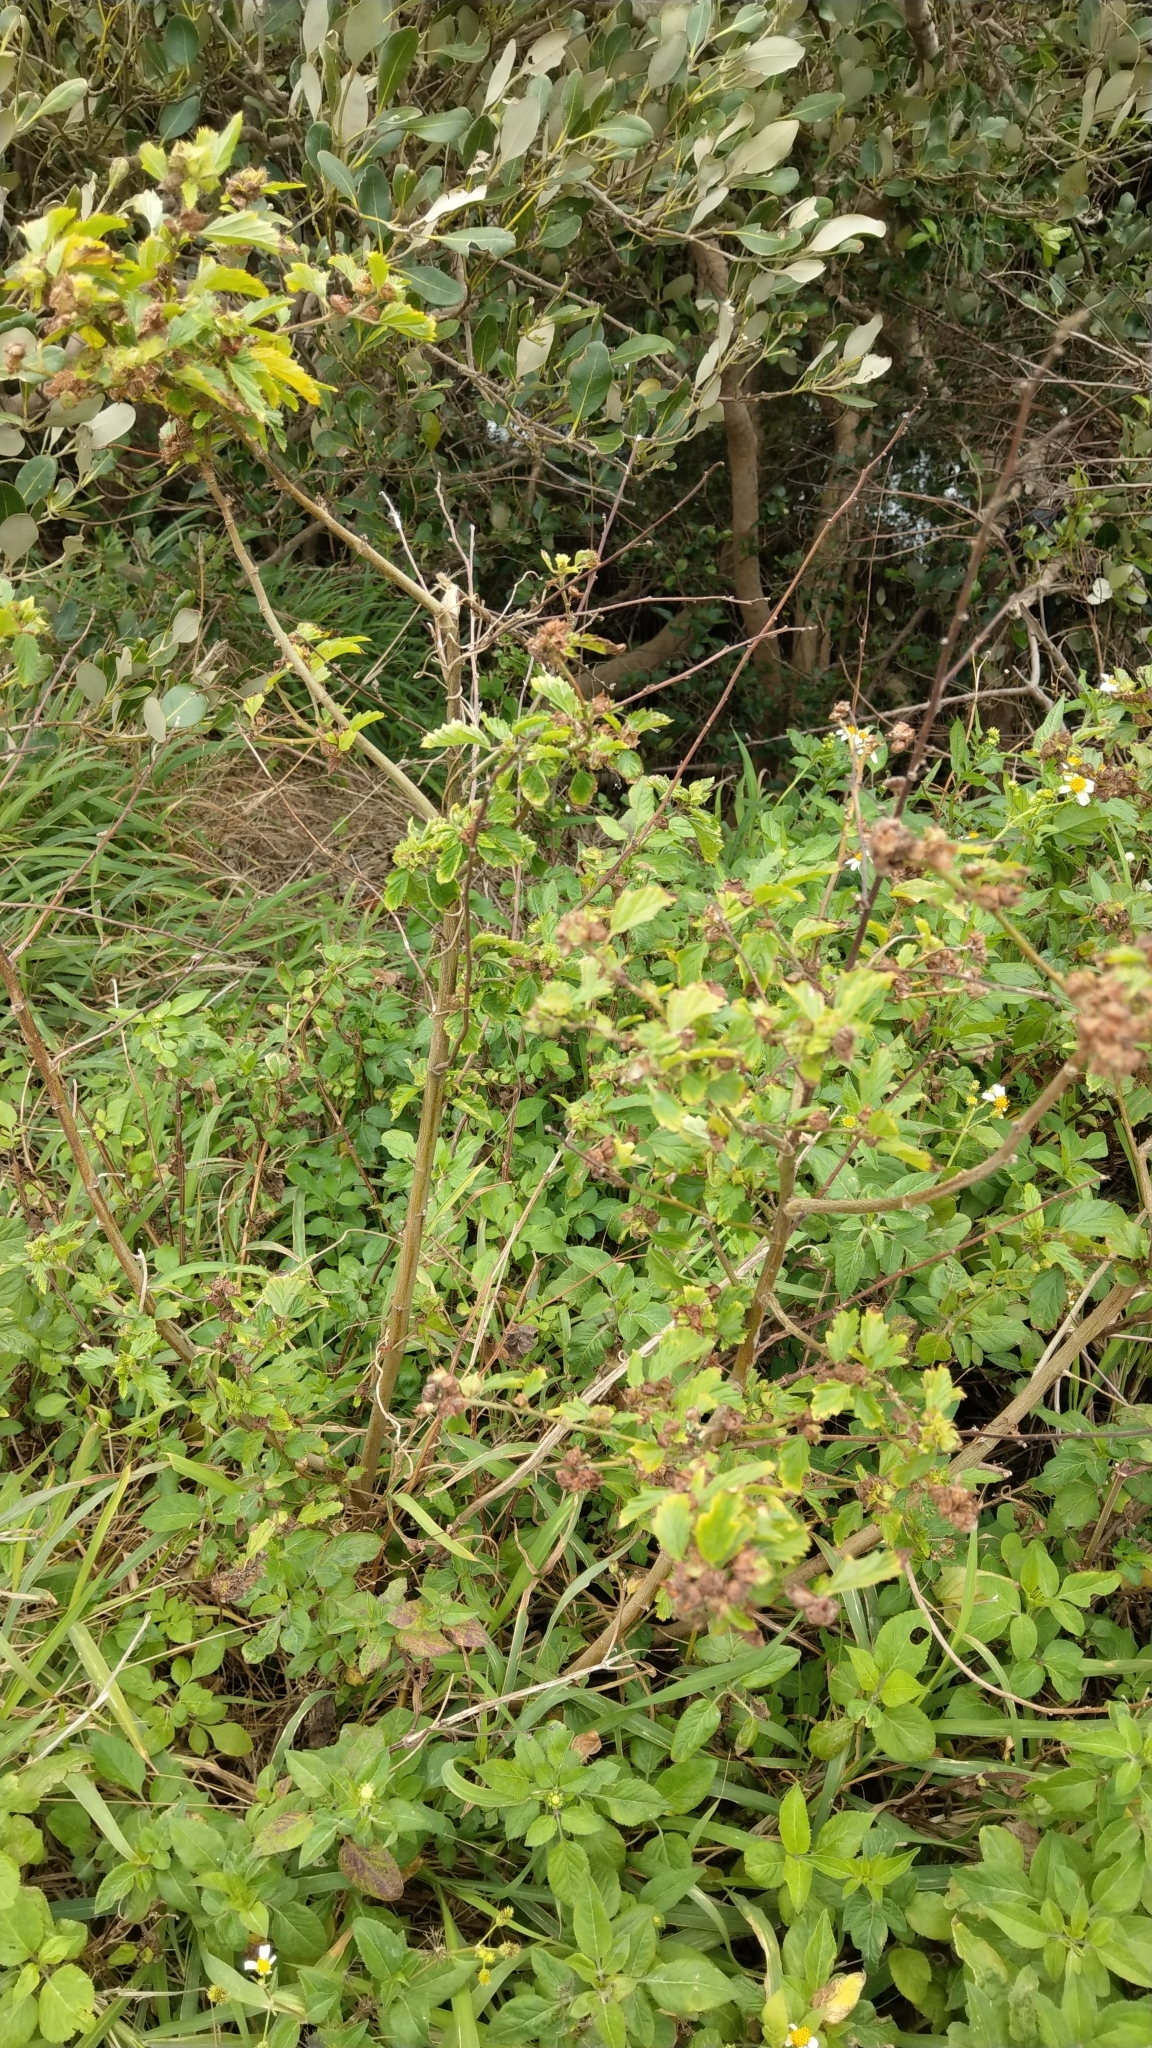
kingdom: Plantae
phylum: Tracheophyta
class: Magnoliopsida
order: Malvales
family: Malvaceae
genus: Malvastrum
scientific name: Malvastrum coromandelianum
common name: Threelobe false mallow
